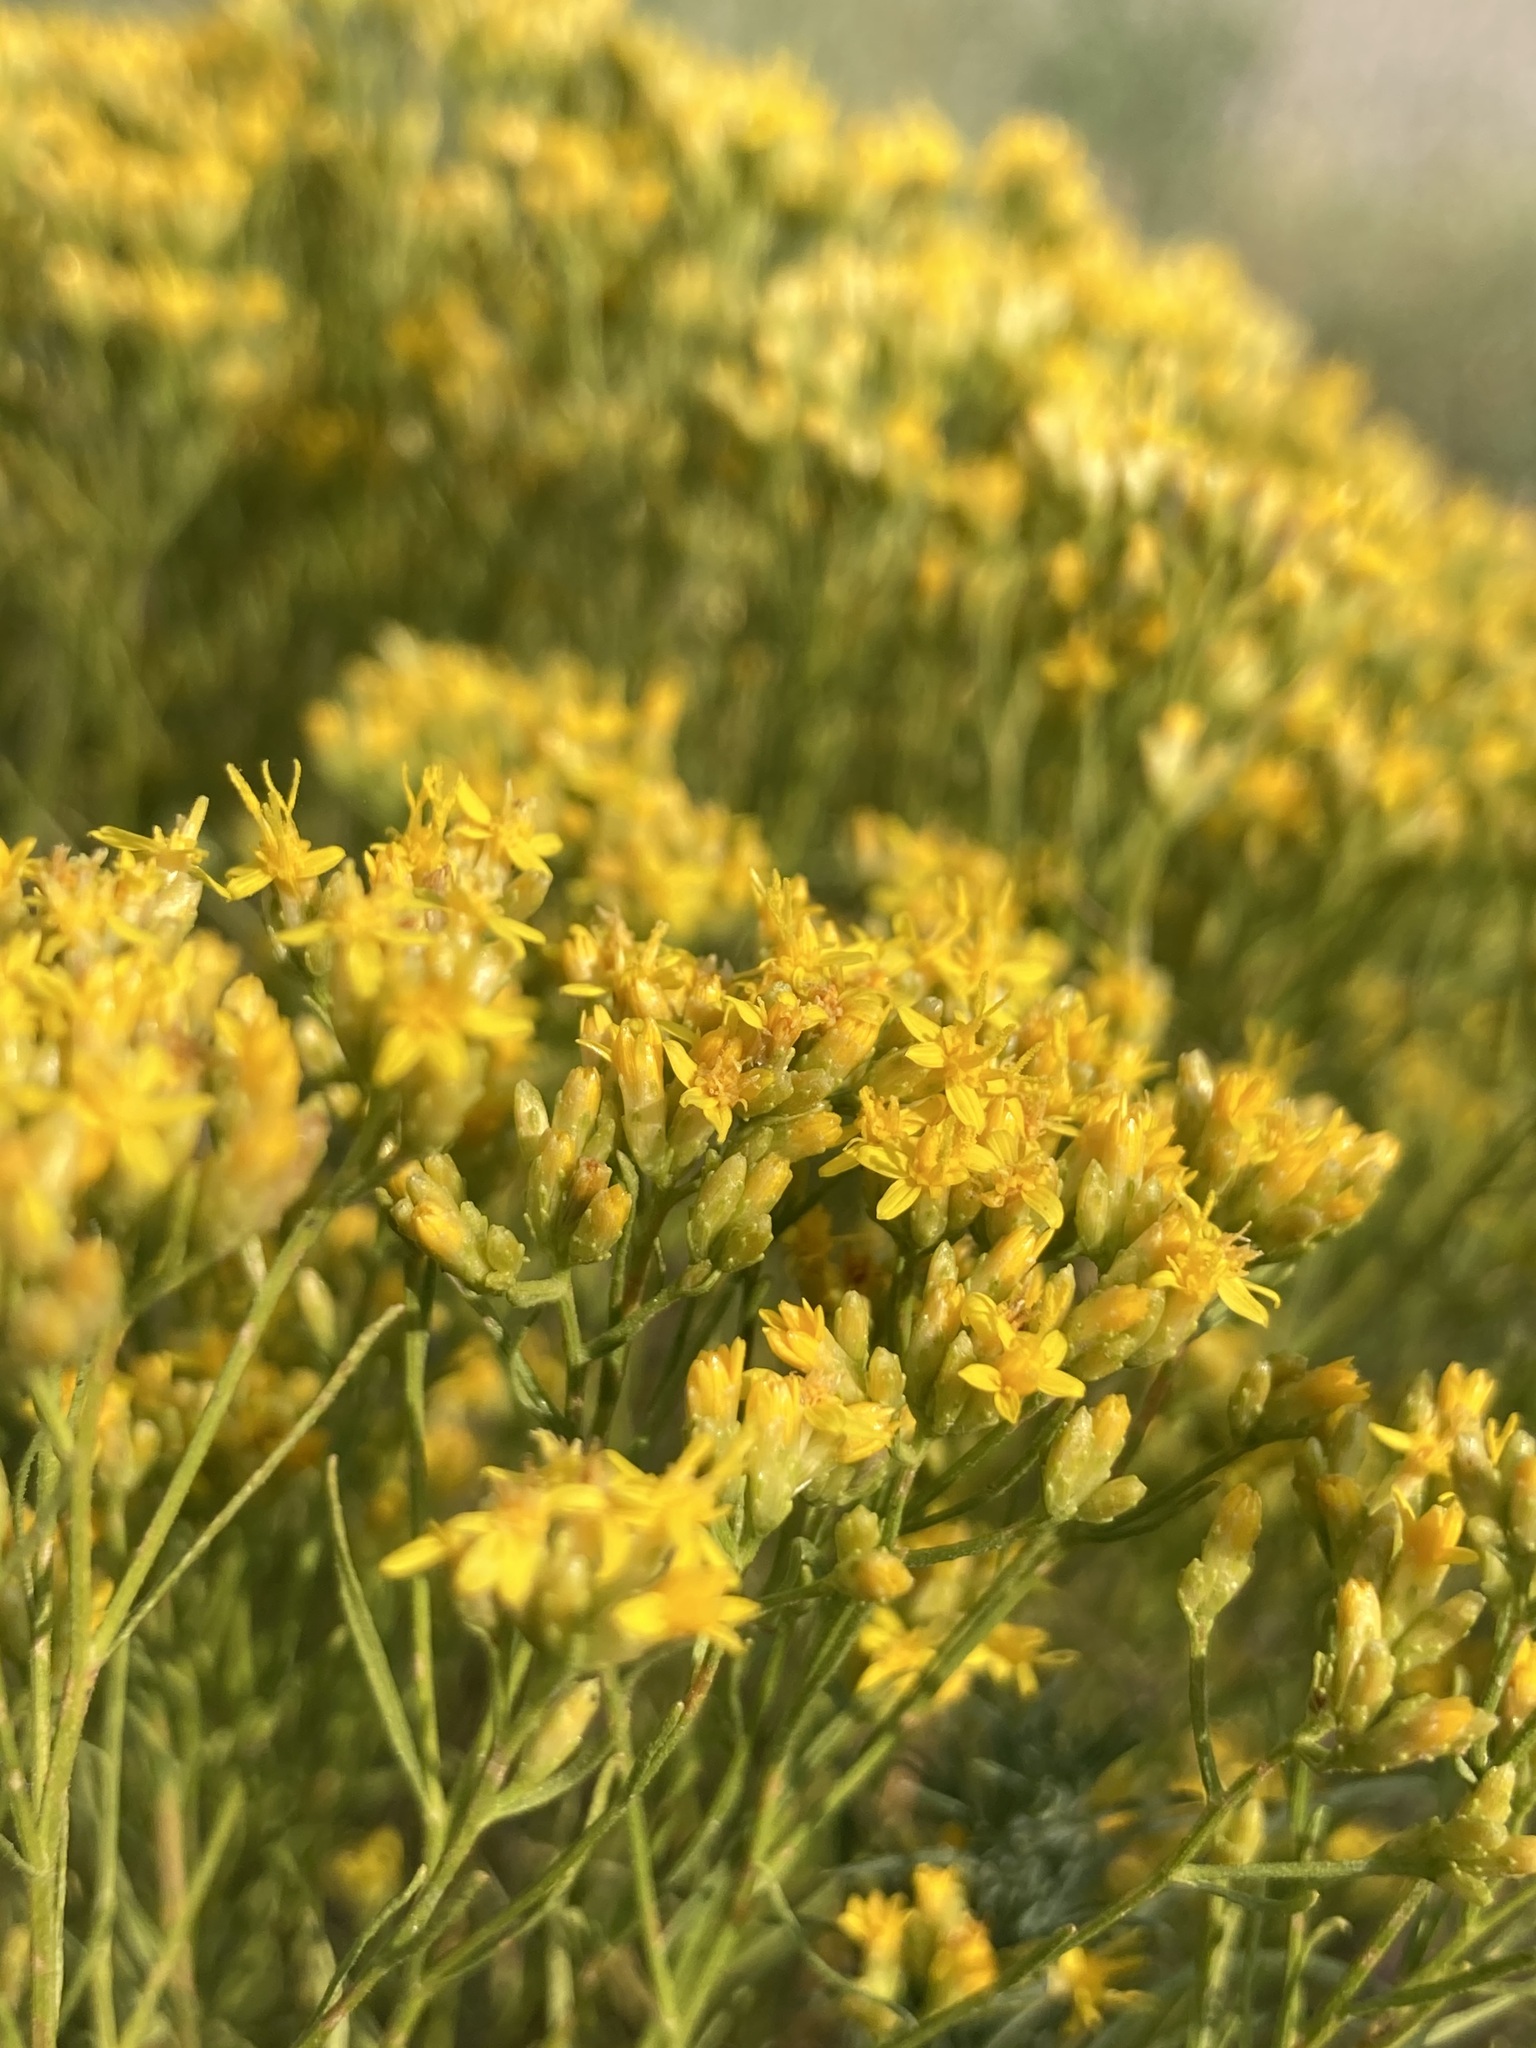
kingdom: Plantae
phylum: Tracheophyta
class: Magnoliopsida
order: Asterales
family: Asteraceae
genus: Gutierrezia
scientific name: Gutierrezia sarothrae
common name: Broom snakeweed
